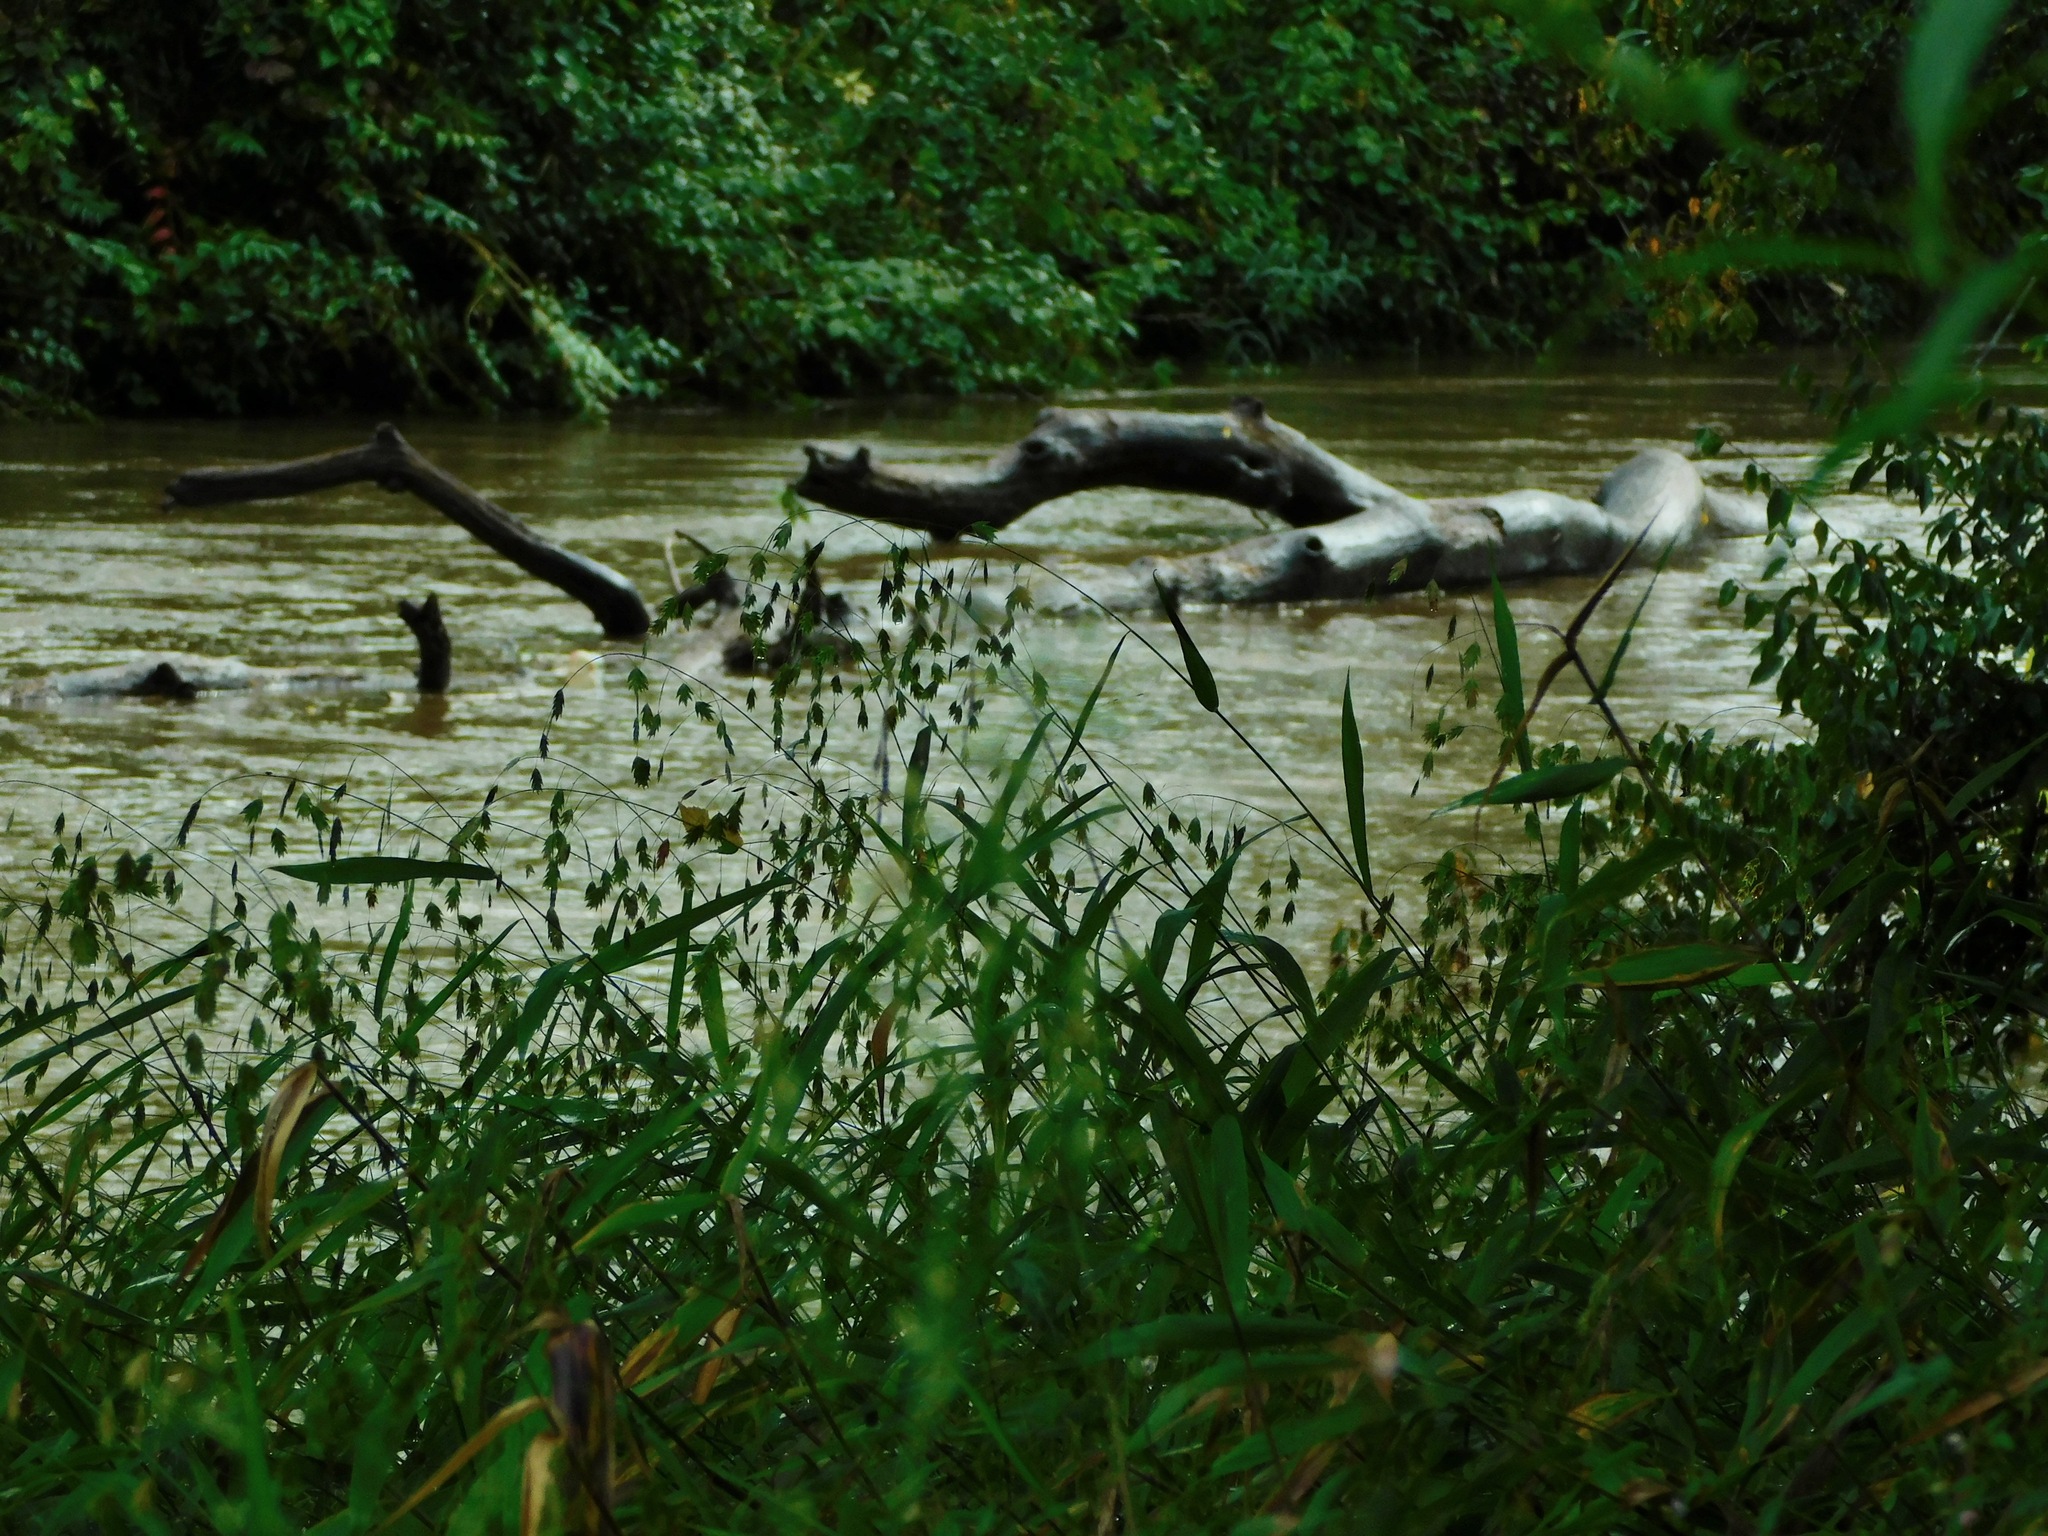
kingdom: Plantae
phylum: Tracheophyta
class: Liliopsida
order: Poales
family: Poaceae
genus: Chasmanthium
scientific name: Chasmanthium latifolium
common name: Broad-leaved chasmanthium
